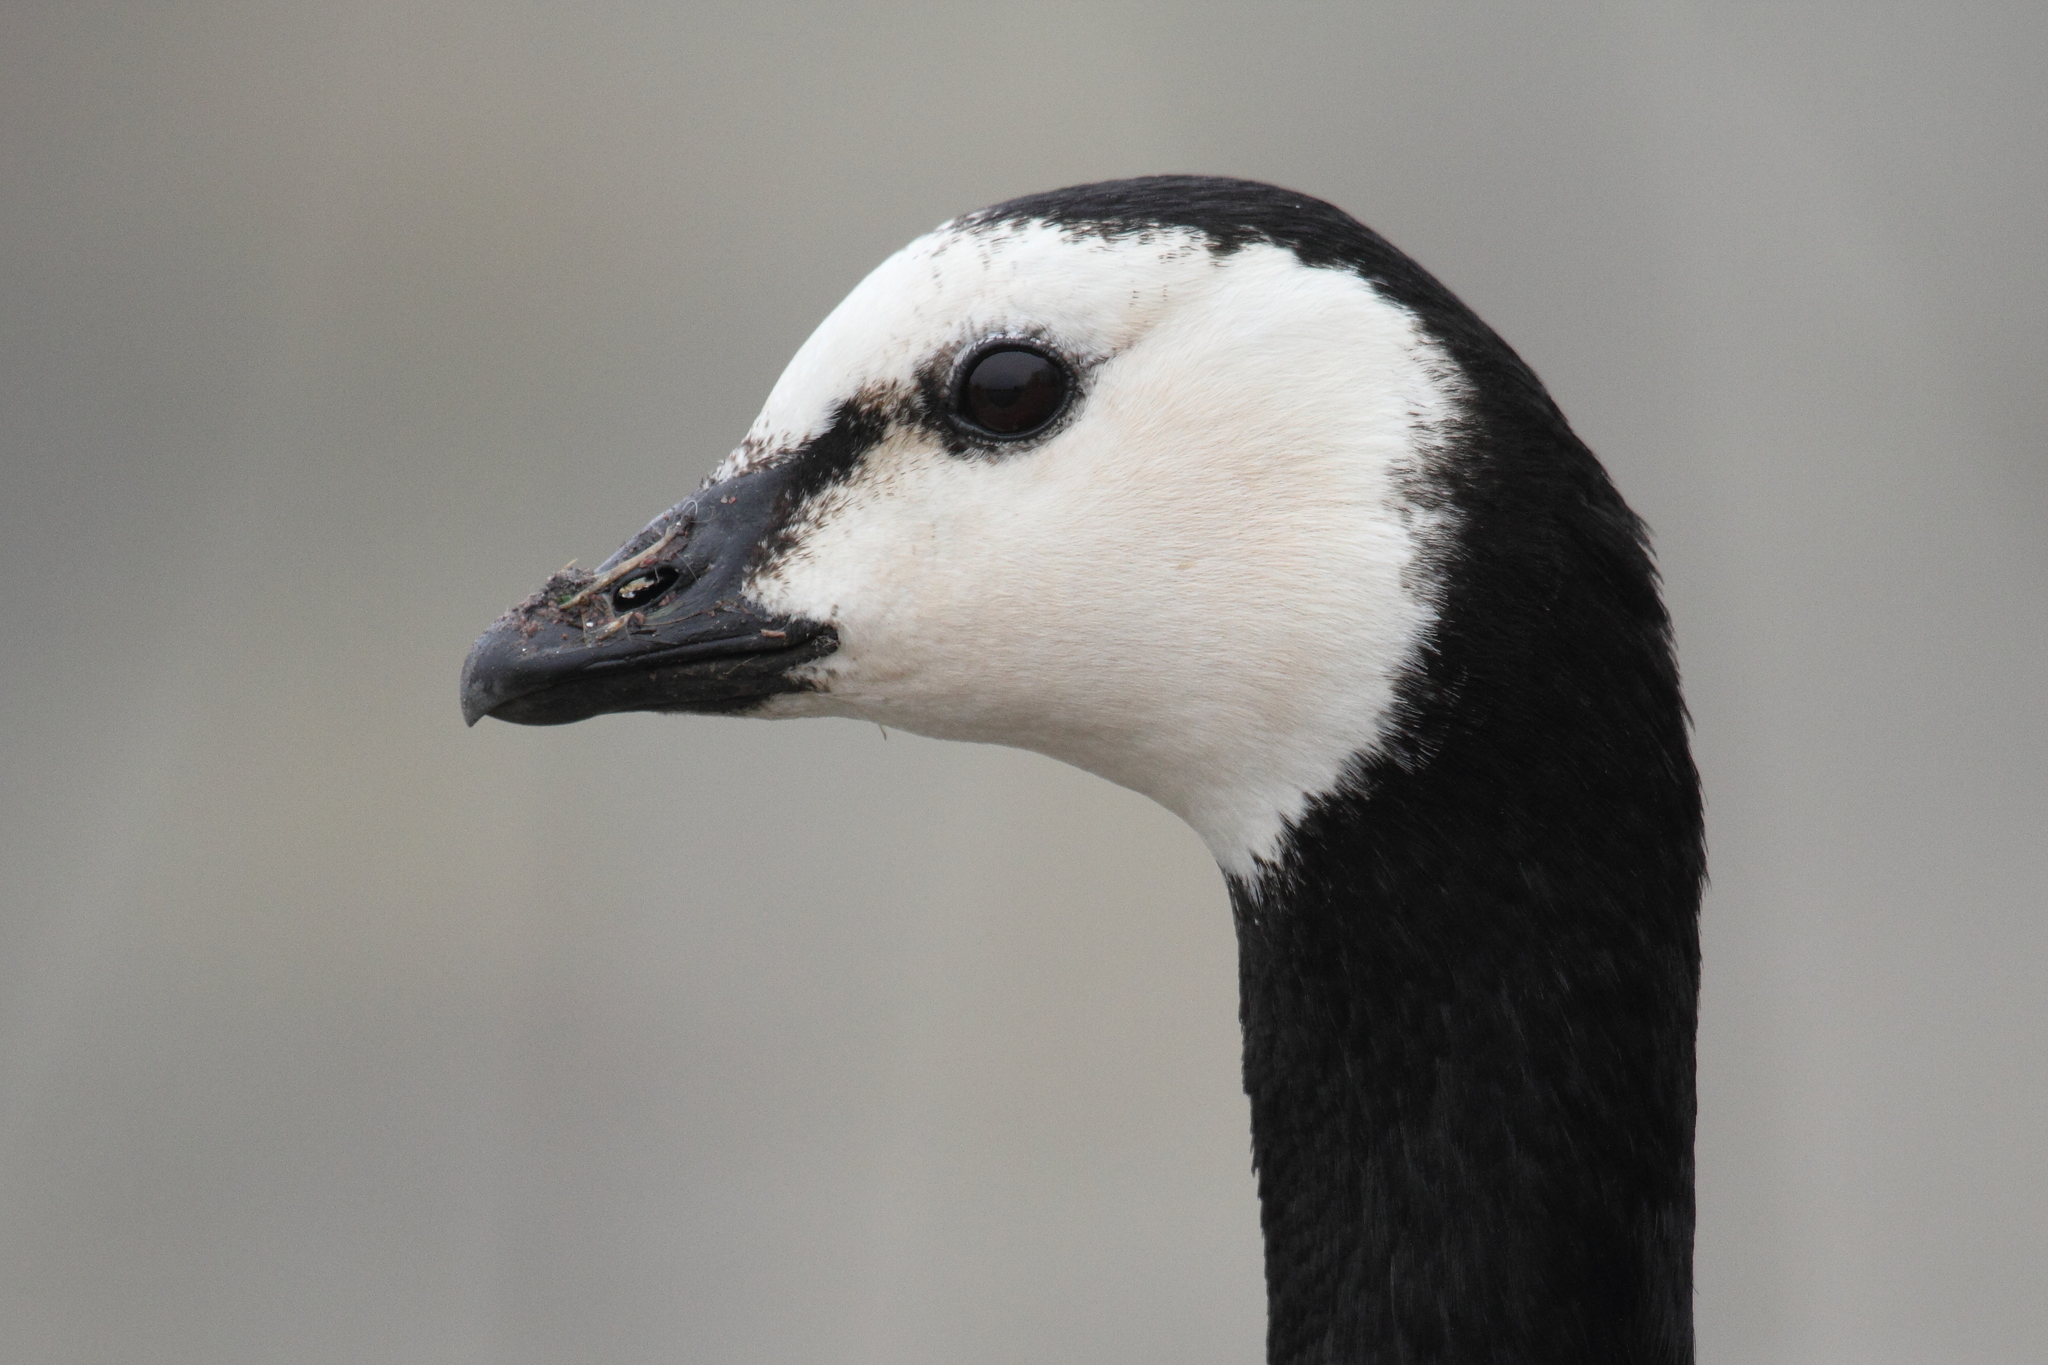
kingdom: Animalia
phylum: Chordata
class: Aves
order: Anseriformes
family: Anatidae
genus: Branta
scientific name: Branta leucopsis
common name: Barnacle goose
